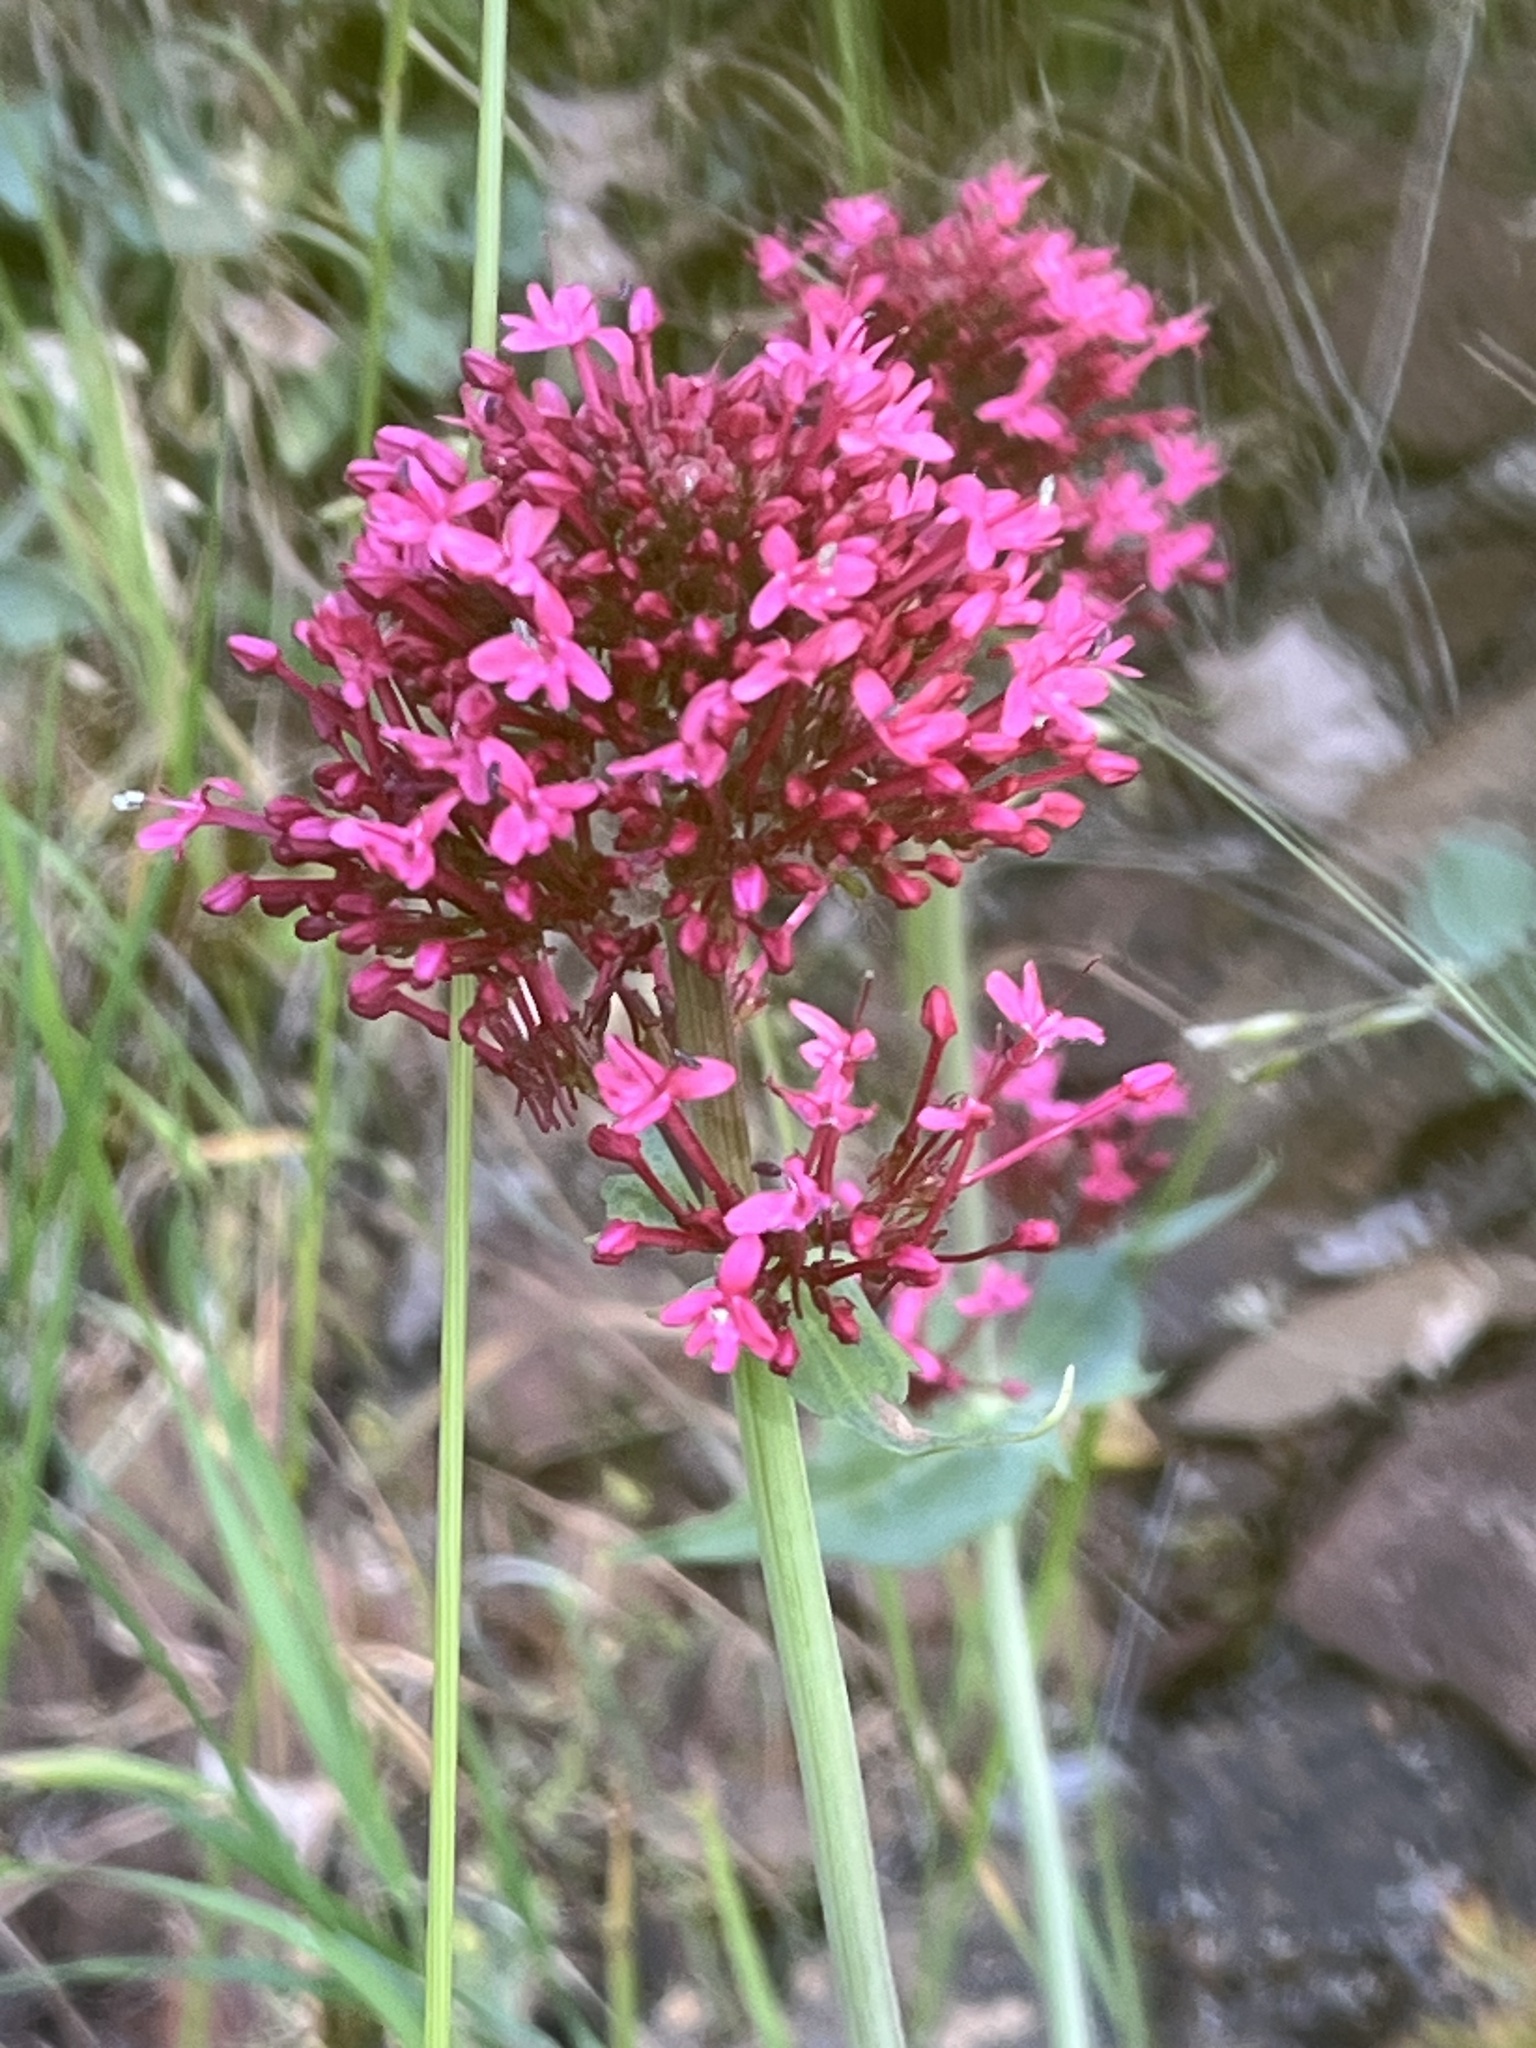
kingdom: Plantae
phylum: Tracheophyta
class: Magnoliopsida
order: Dipsacales
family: Caprifoliaceae
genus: Centranthus
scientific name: Centranthus ruber
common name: Red valerian
